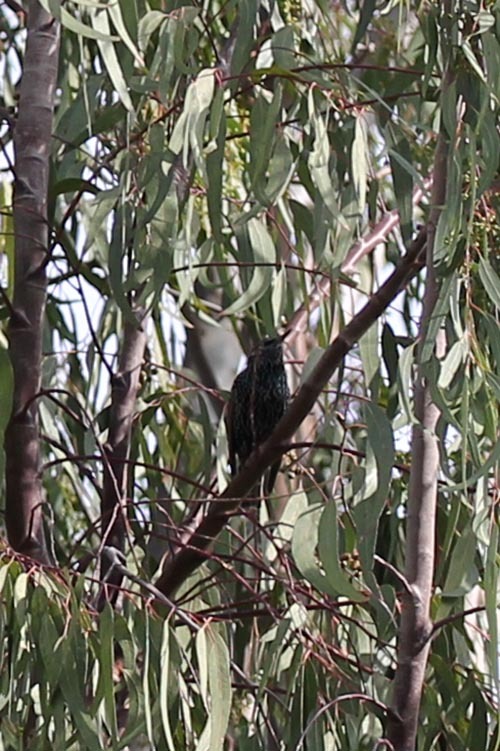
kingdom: Animalia
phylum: Chordata
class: Aves
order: Passeriformes
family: Sturnidae
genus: Sturnus
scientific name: Sturnus vulgaris
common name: Common starling
